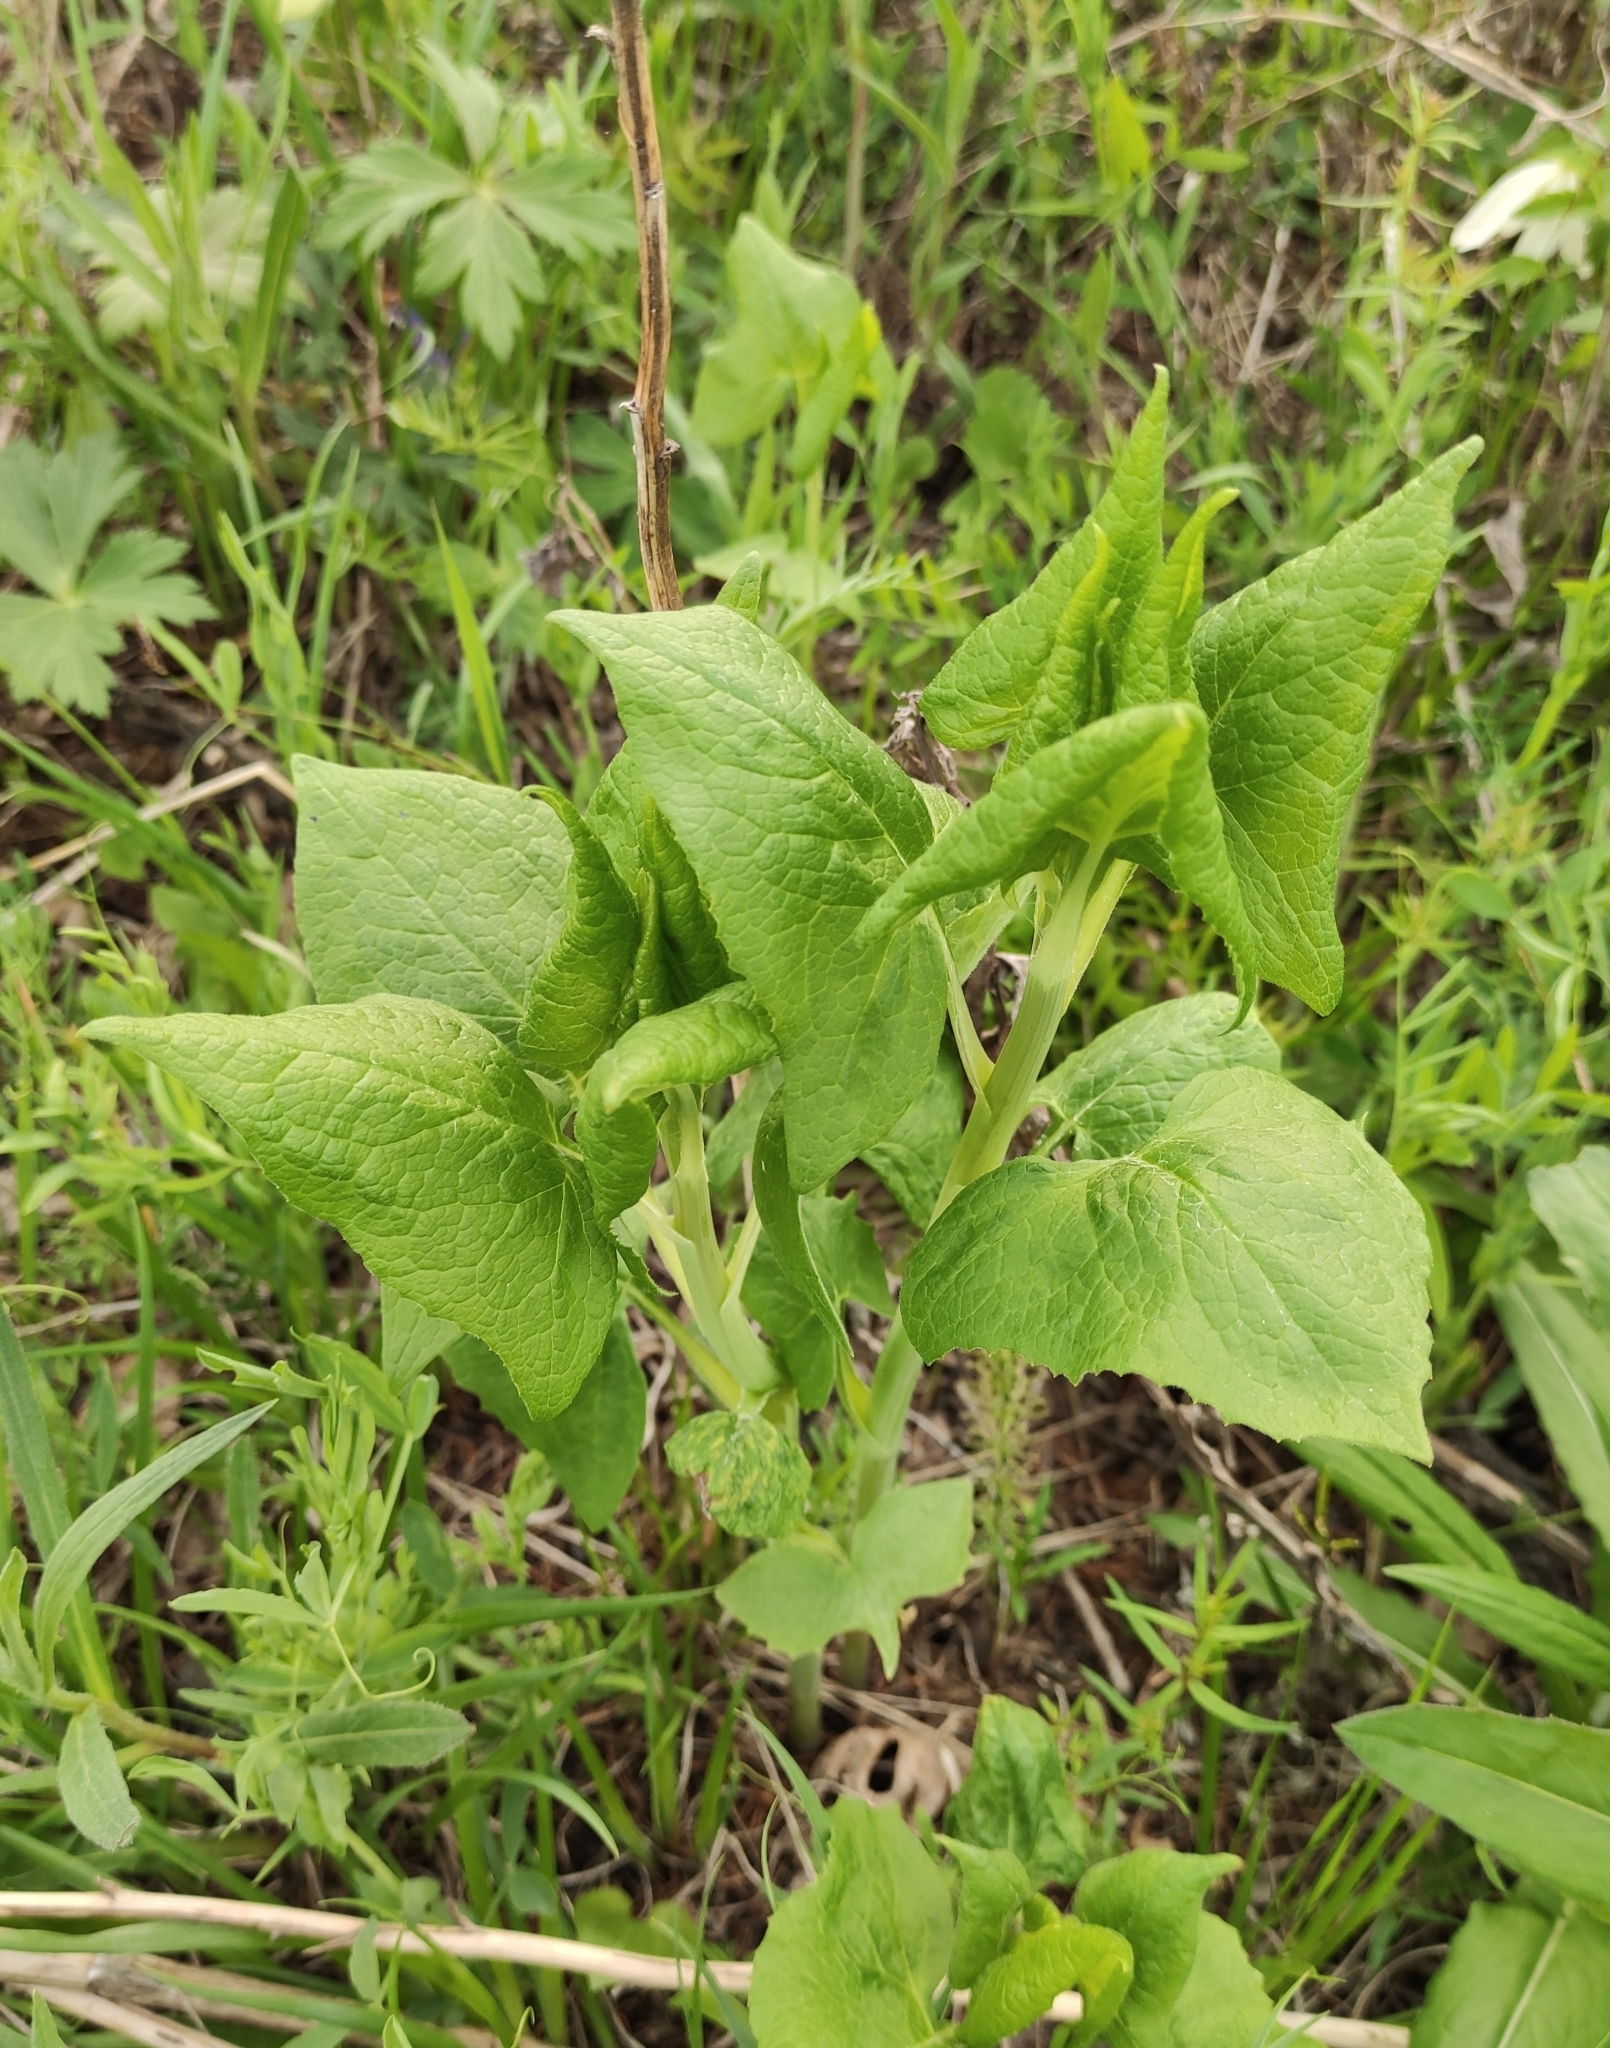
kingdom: Plantae
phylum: Tracheophyta
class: Magnoliopsida
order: Asterales
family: Asteraceae
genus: Parasenecio
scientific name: Parasenecio hastatus
